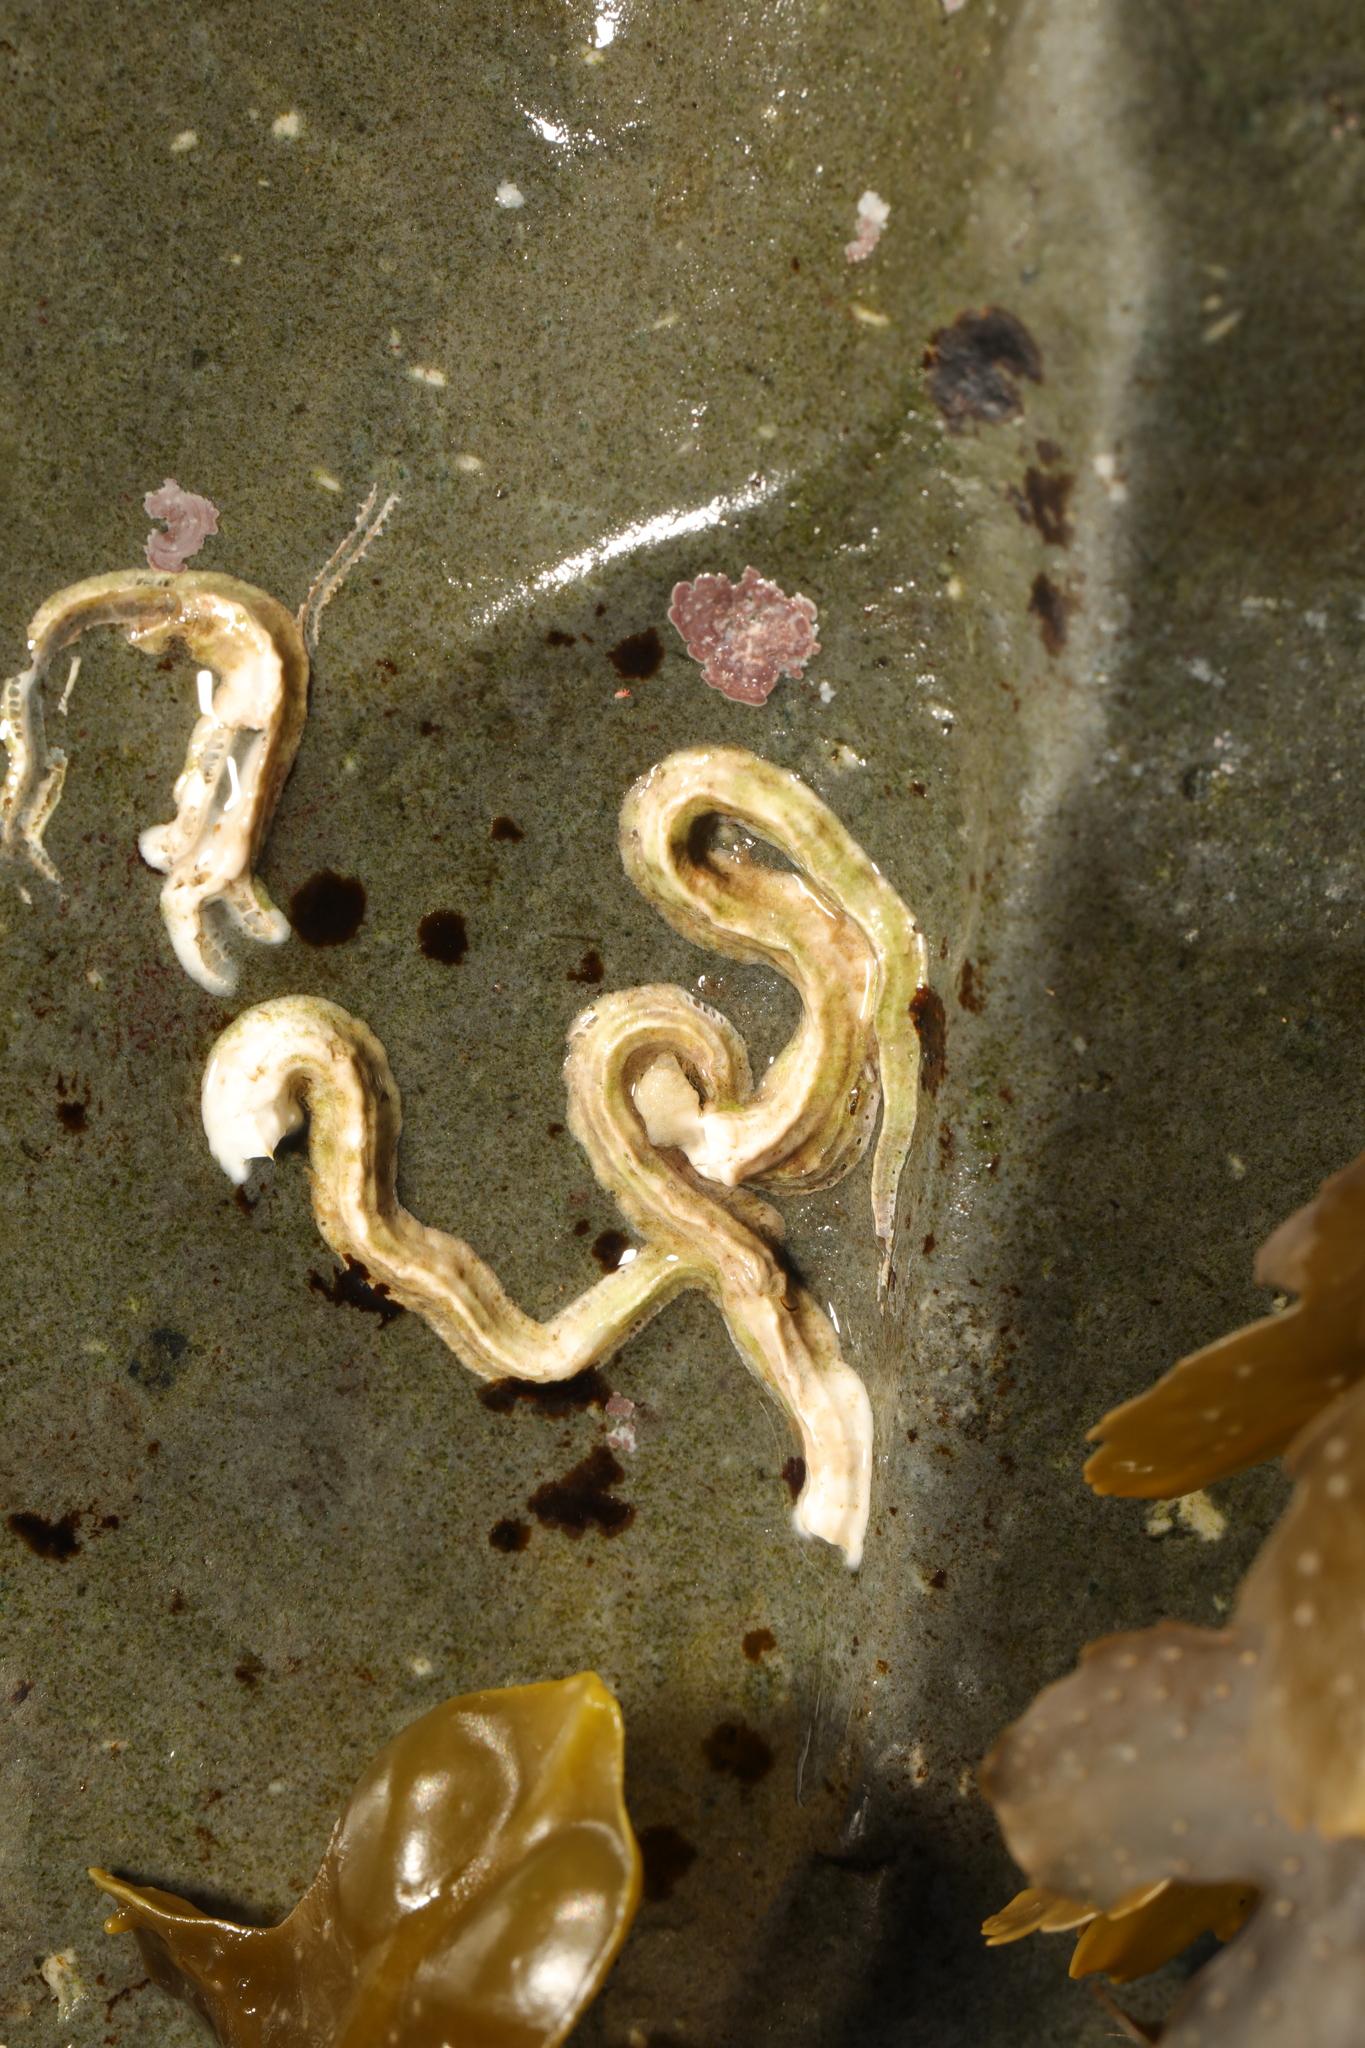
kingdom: Animalia
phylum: Annelida
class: Polychaeta
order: Sabellida
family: Serpulidae
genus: Spirobranchus
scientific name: Spirobranchus lamarcki
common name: Keelworm
